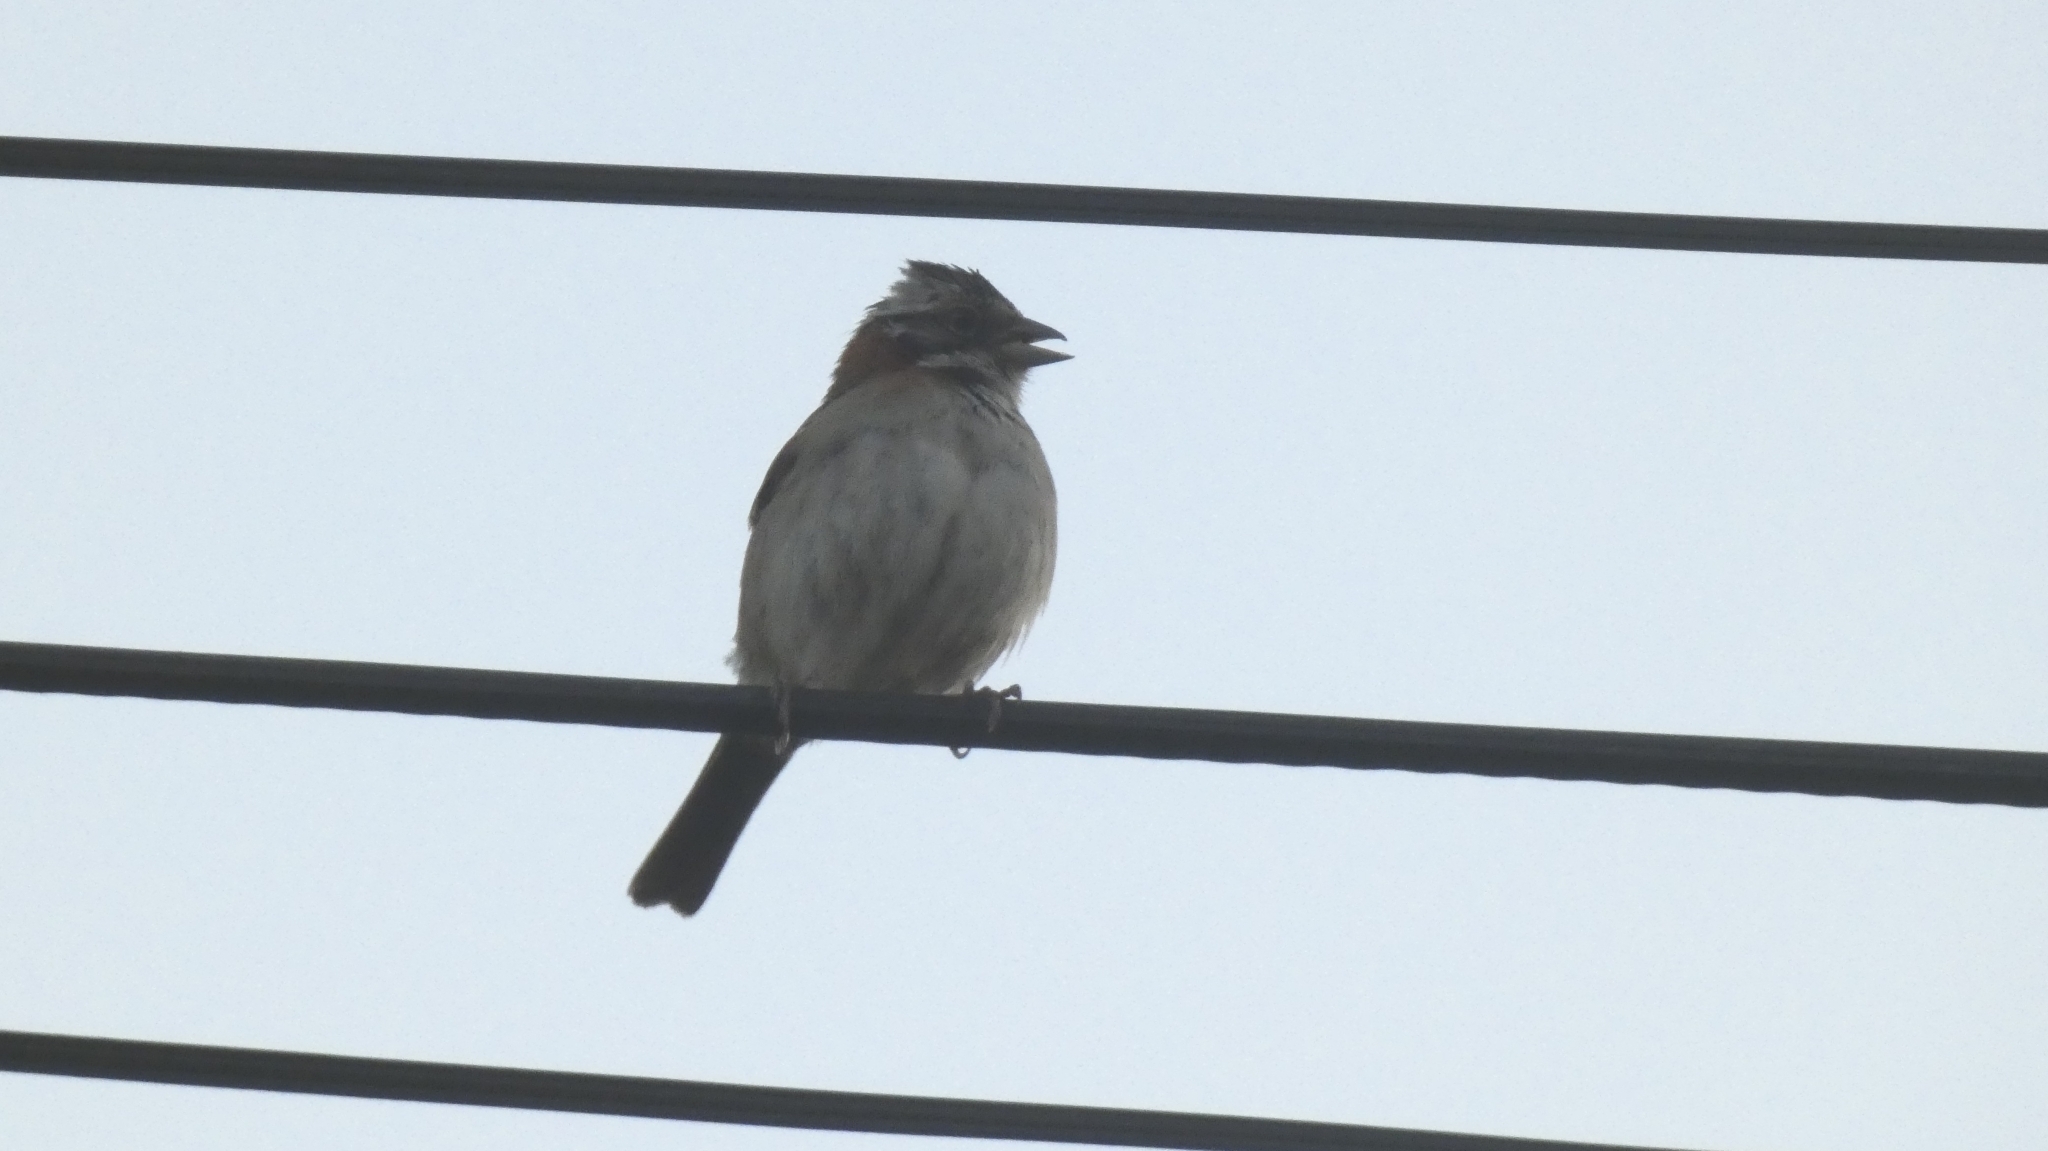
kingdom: Animalia
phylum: Chordata
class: Aves
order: Passeriformes
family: Passerellidae
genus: Zonotrichia
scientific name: Zonotrichia capensis
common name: Rufous-collared sparrow
